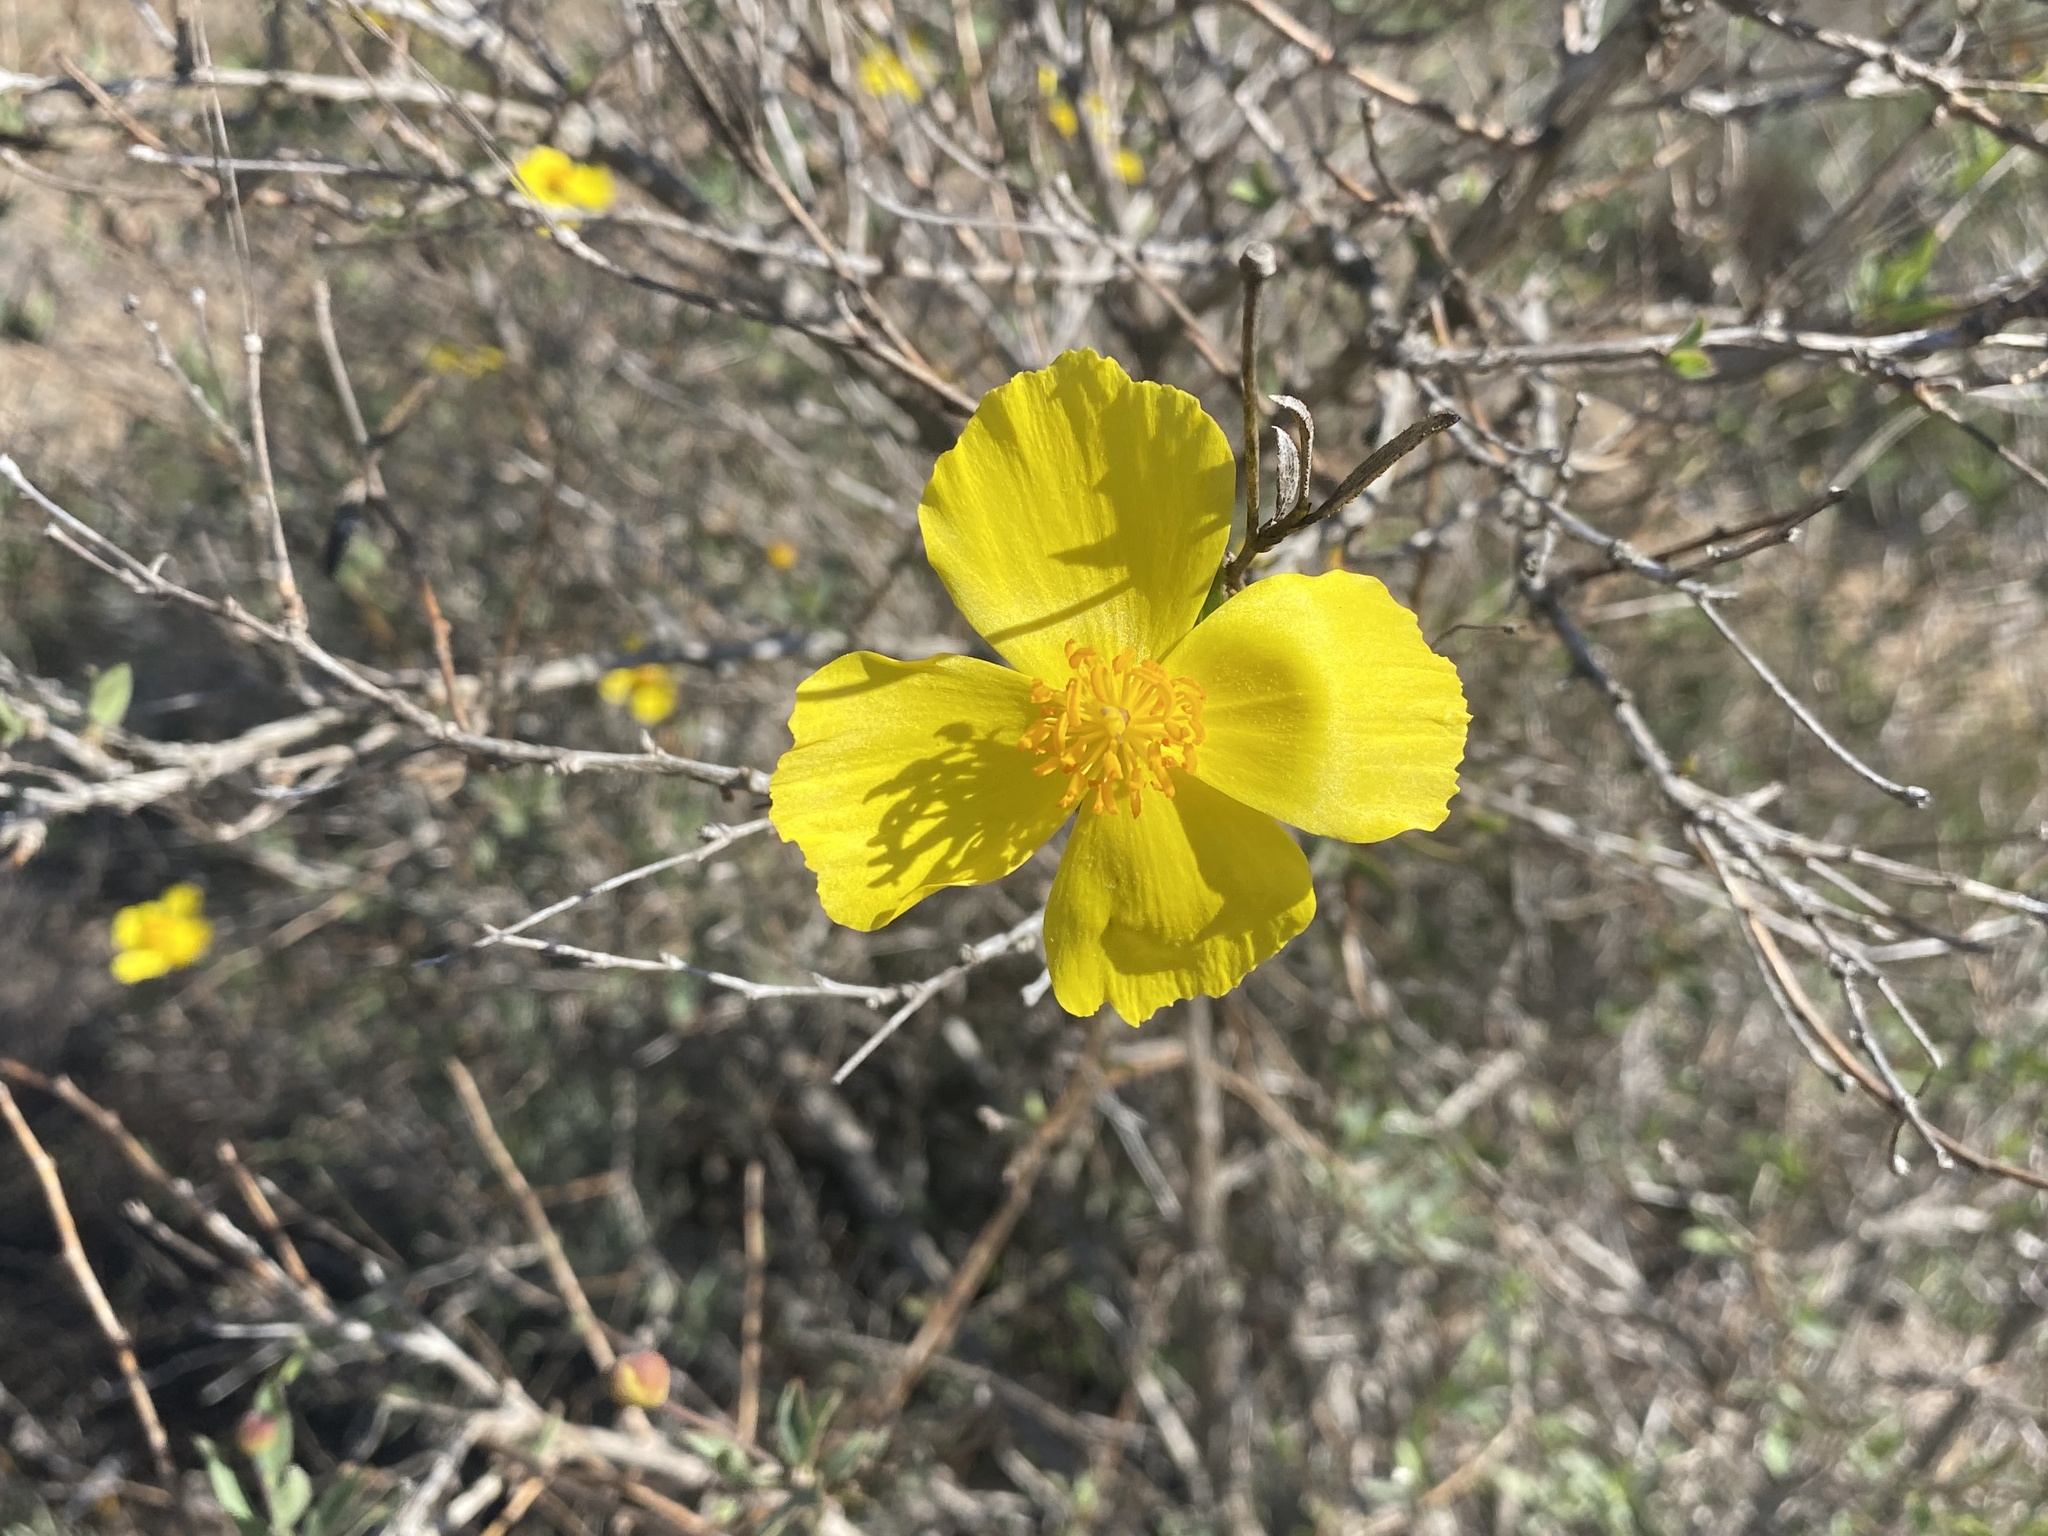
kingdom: Plantae
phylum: Tracheophyta
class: Magnoliopsida
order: Ranunculales
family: Papaveraceae
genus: Dendromecon
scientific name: Dendromecon rigida
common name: Tree poppy
